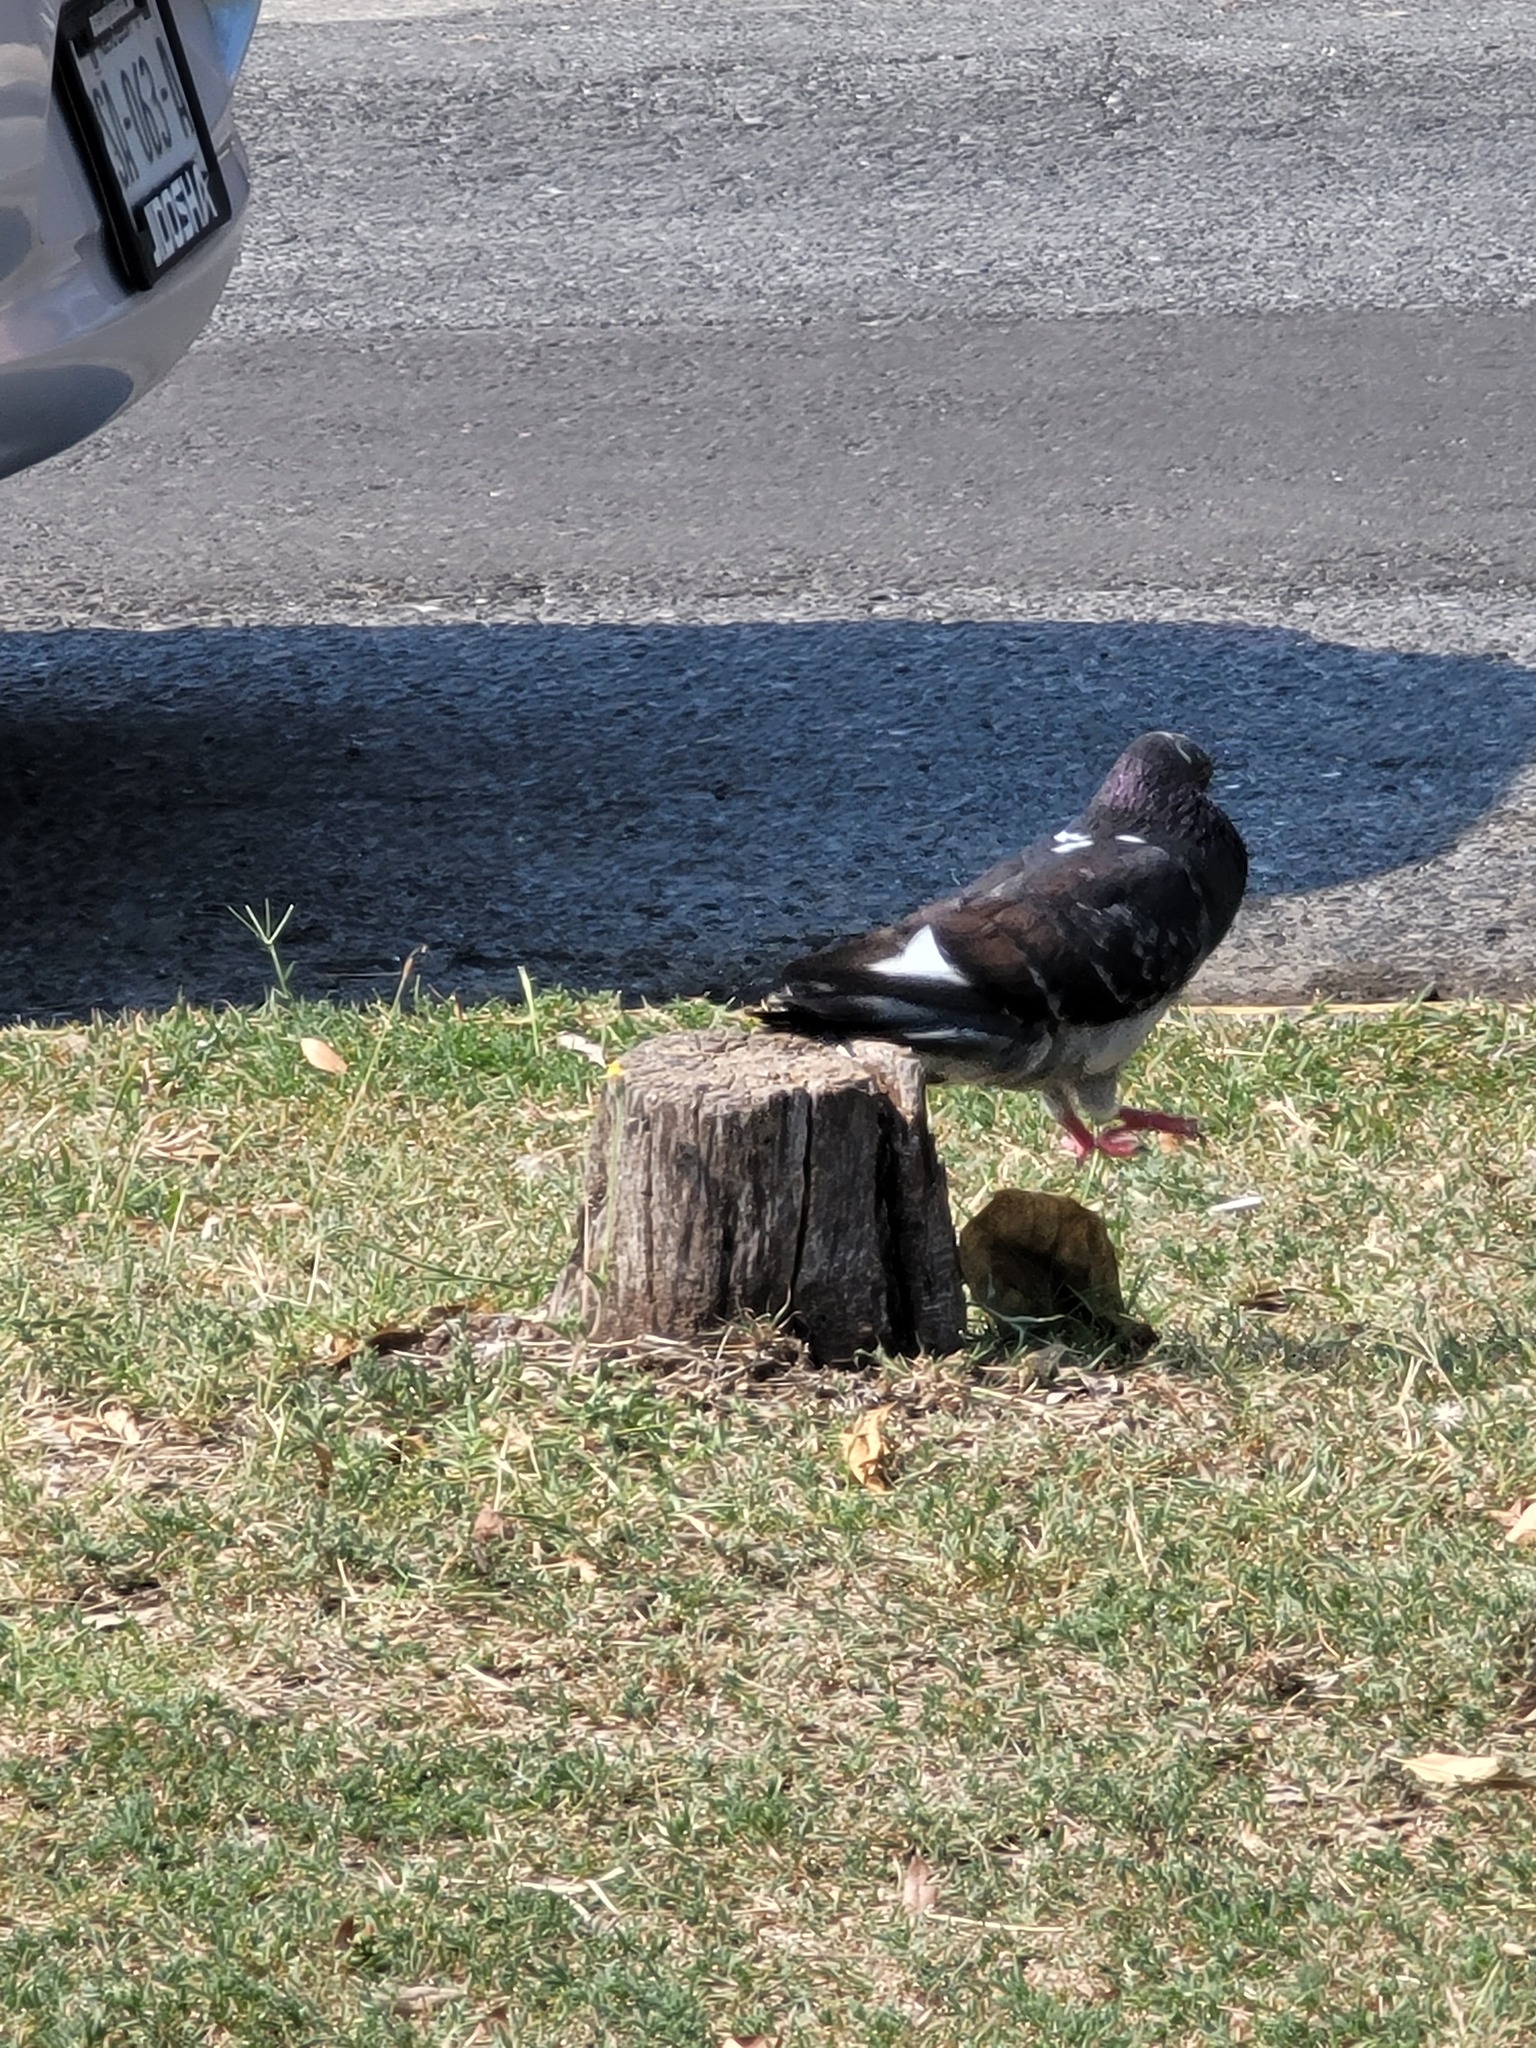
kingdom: Animalia
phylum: Chordata
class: Aves
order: Columbiformes
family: Columbidae
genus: Columba
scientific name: Columba livia
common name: Rock pigeon
